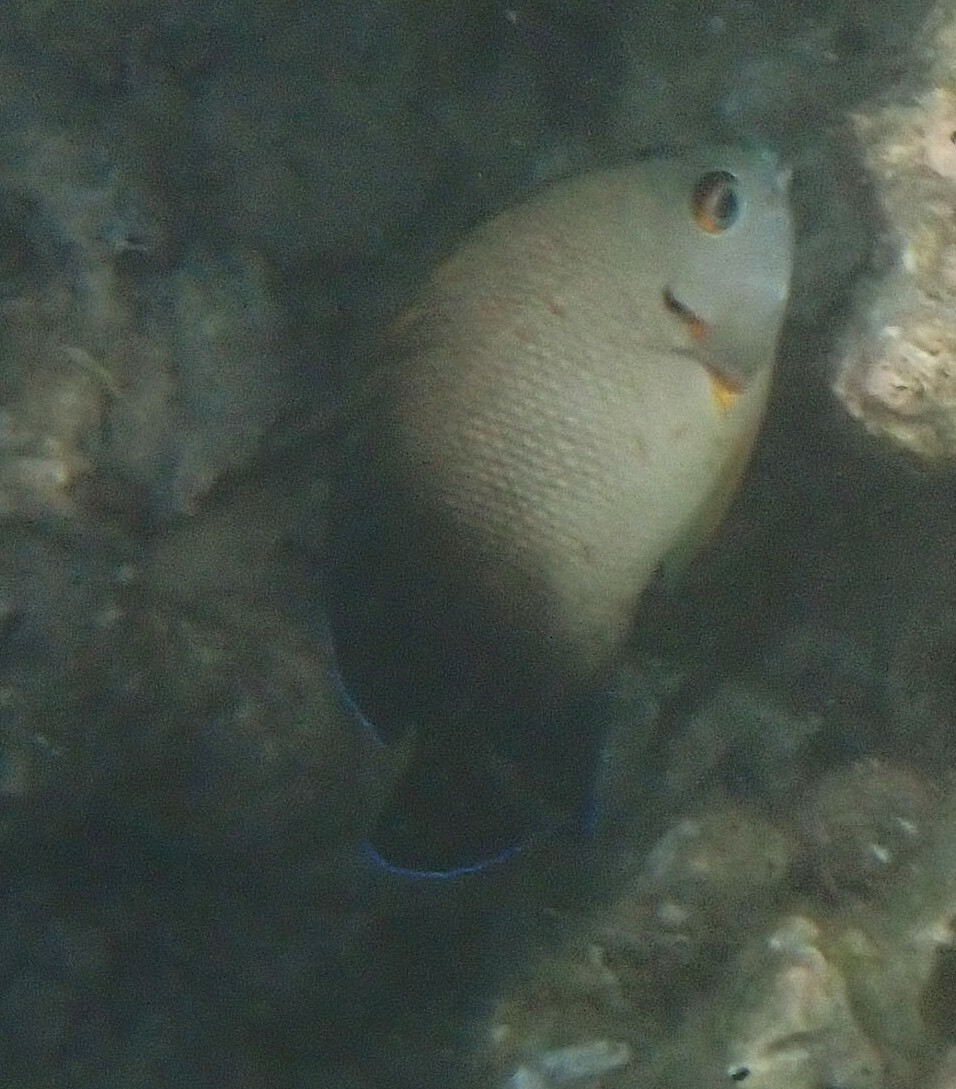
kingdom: Animalia
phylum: Chordata
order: Perciformes
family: Pomacanthidae
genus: Centropyge
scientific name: Centropyge vrolikii
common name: Pearlscale angelfish
